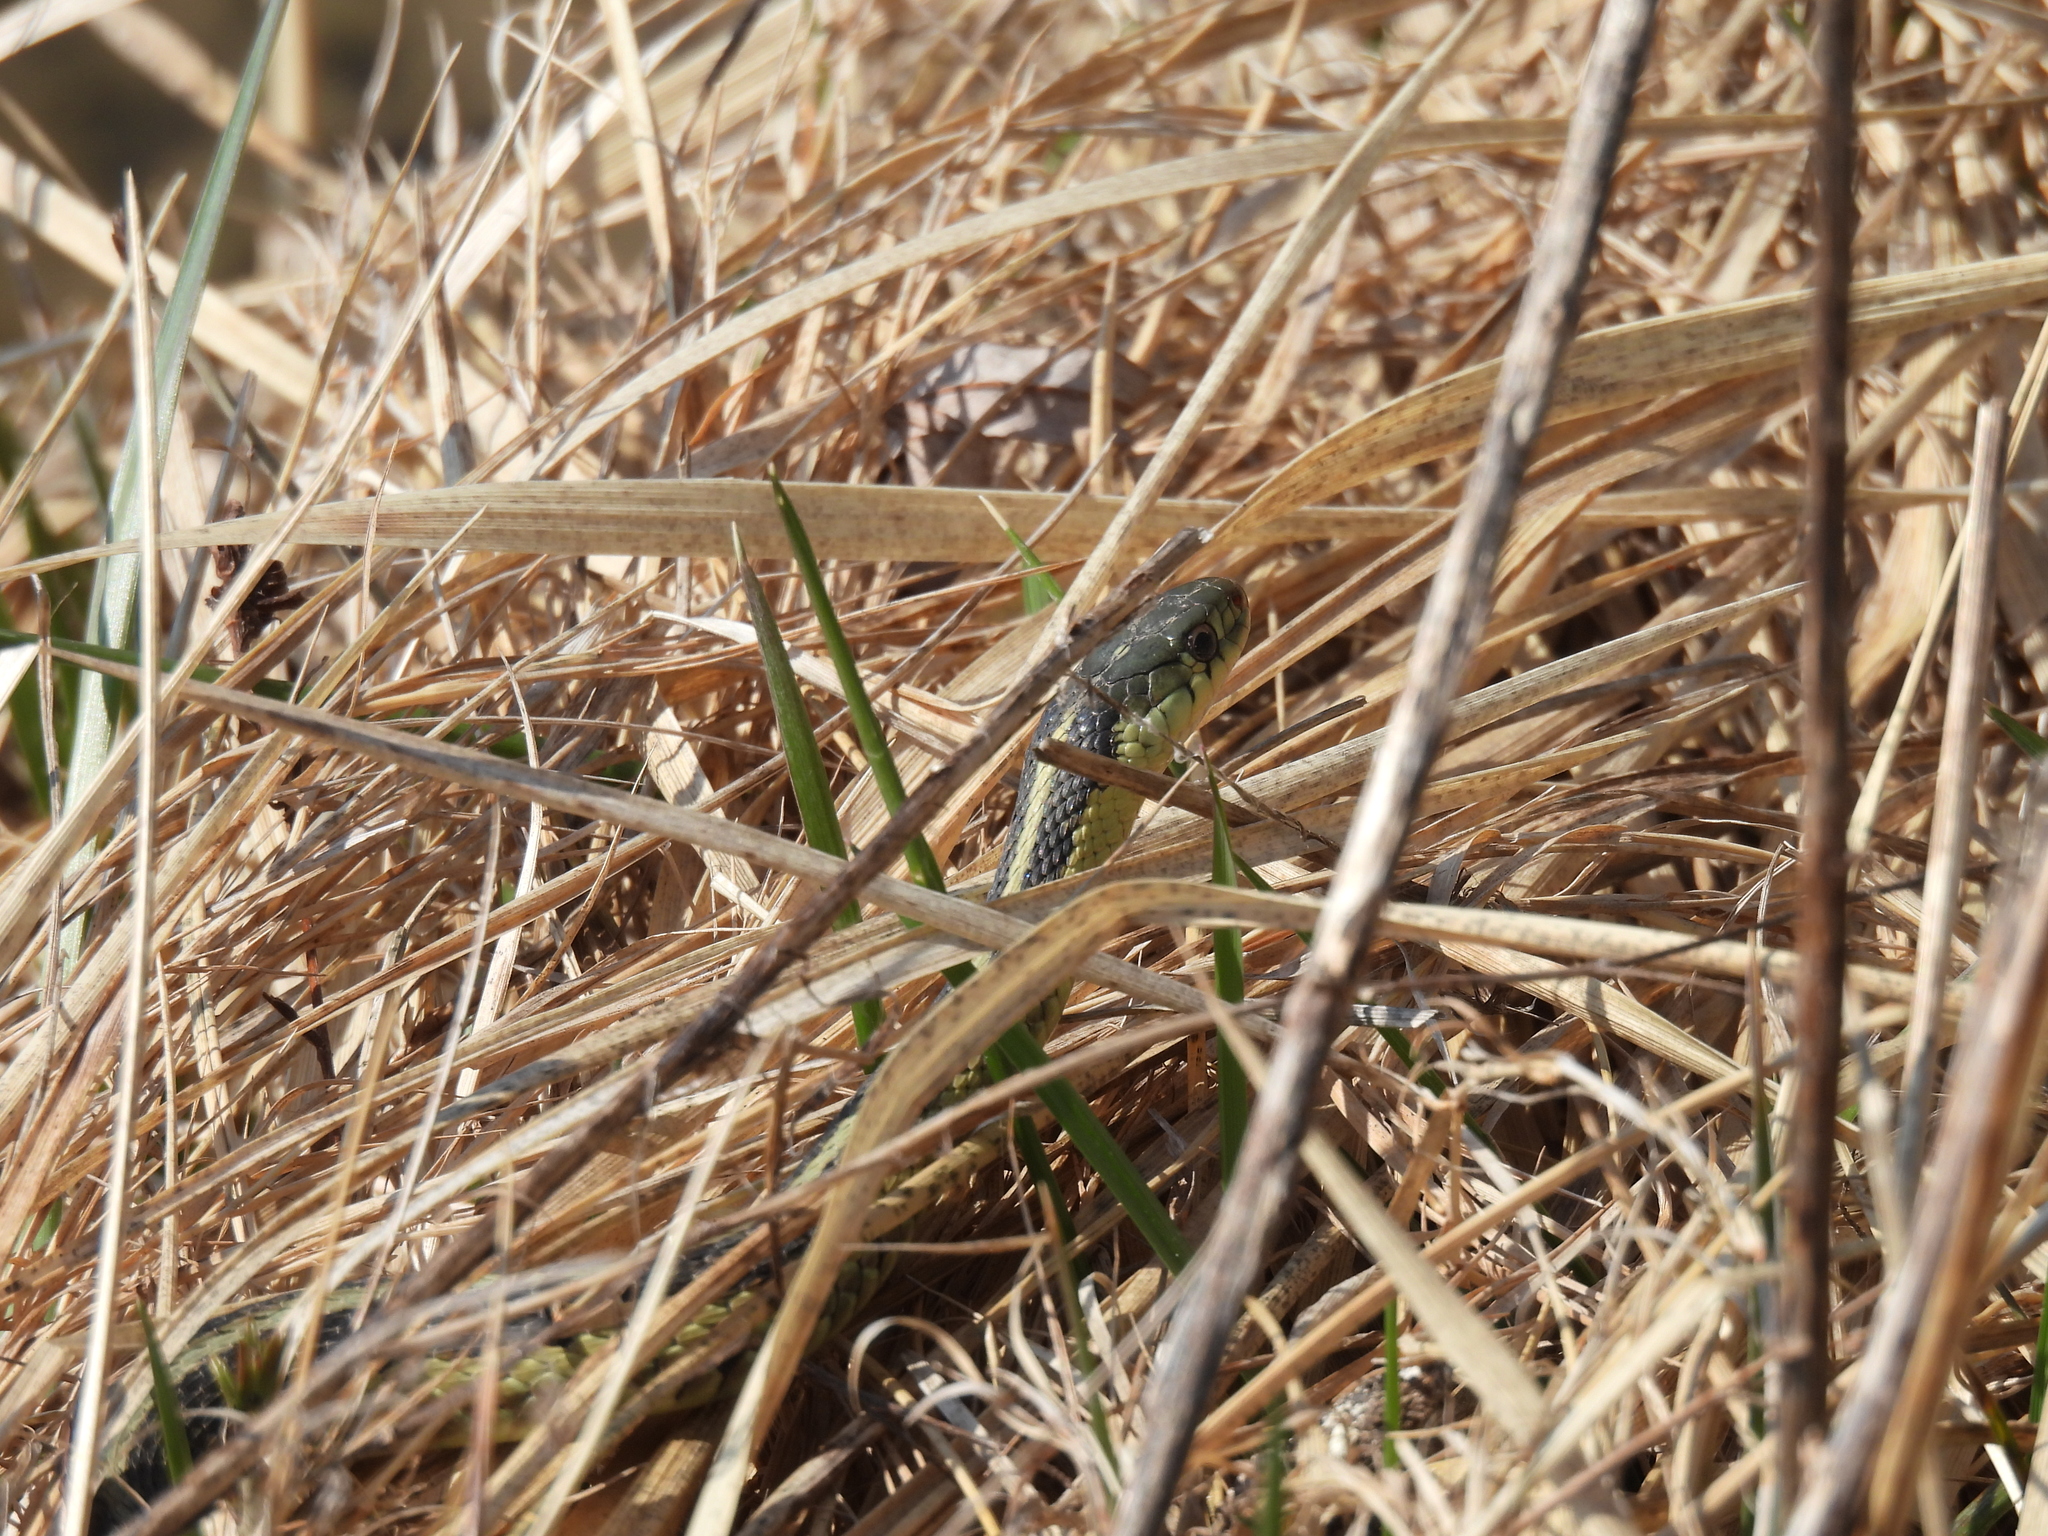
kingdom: Animalia
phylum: Chordata
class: Squamata
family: Colubridae
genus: Thamnophis
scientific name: Thamnophis sirtalis
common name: Common garter snake
